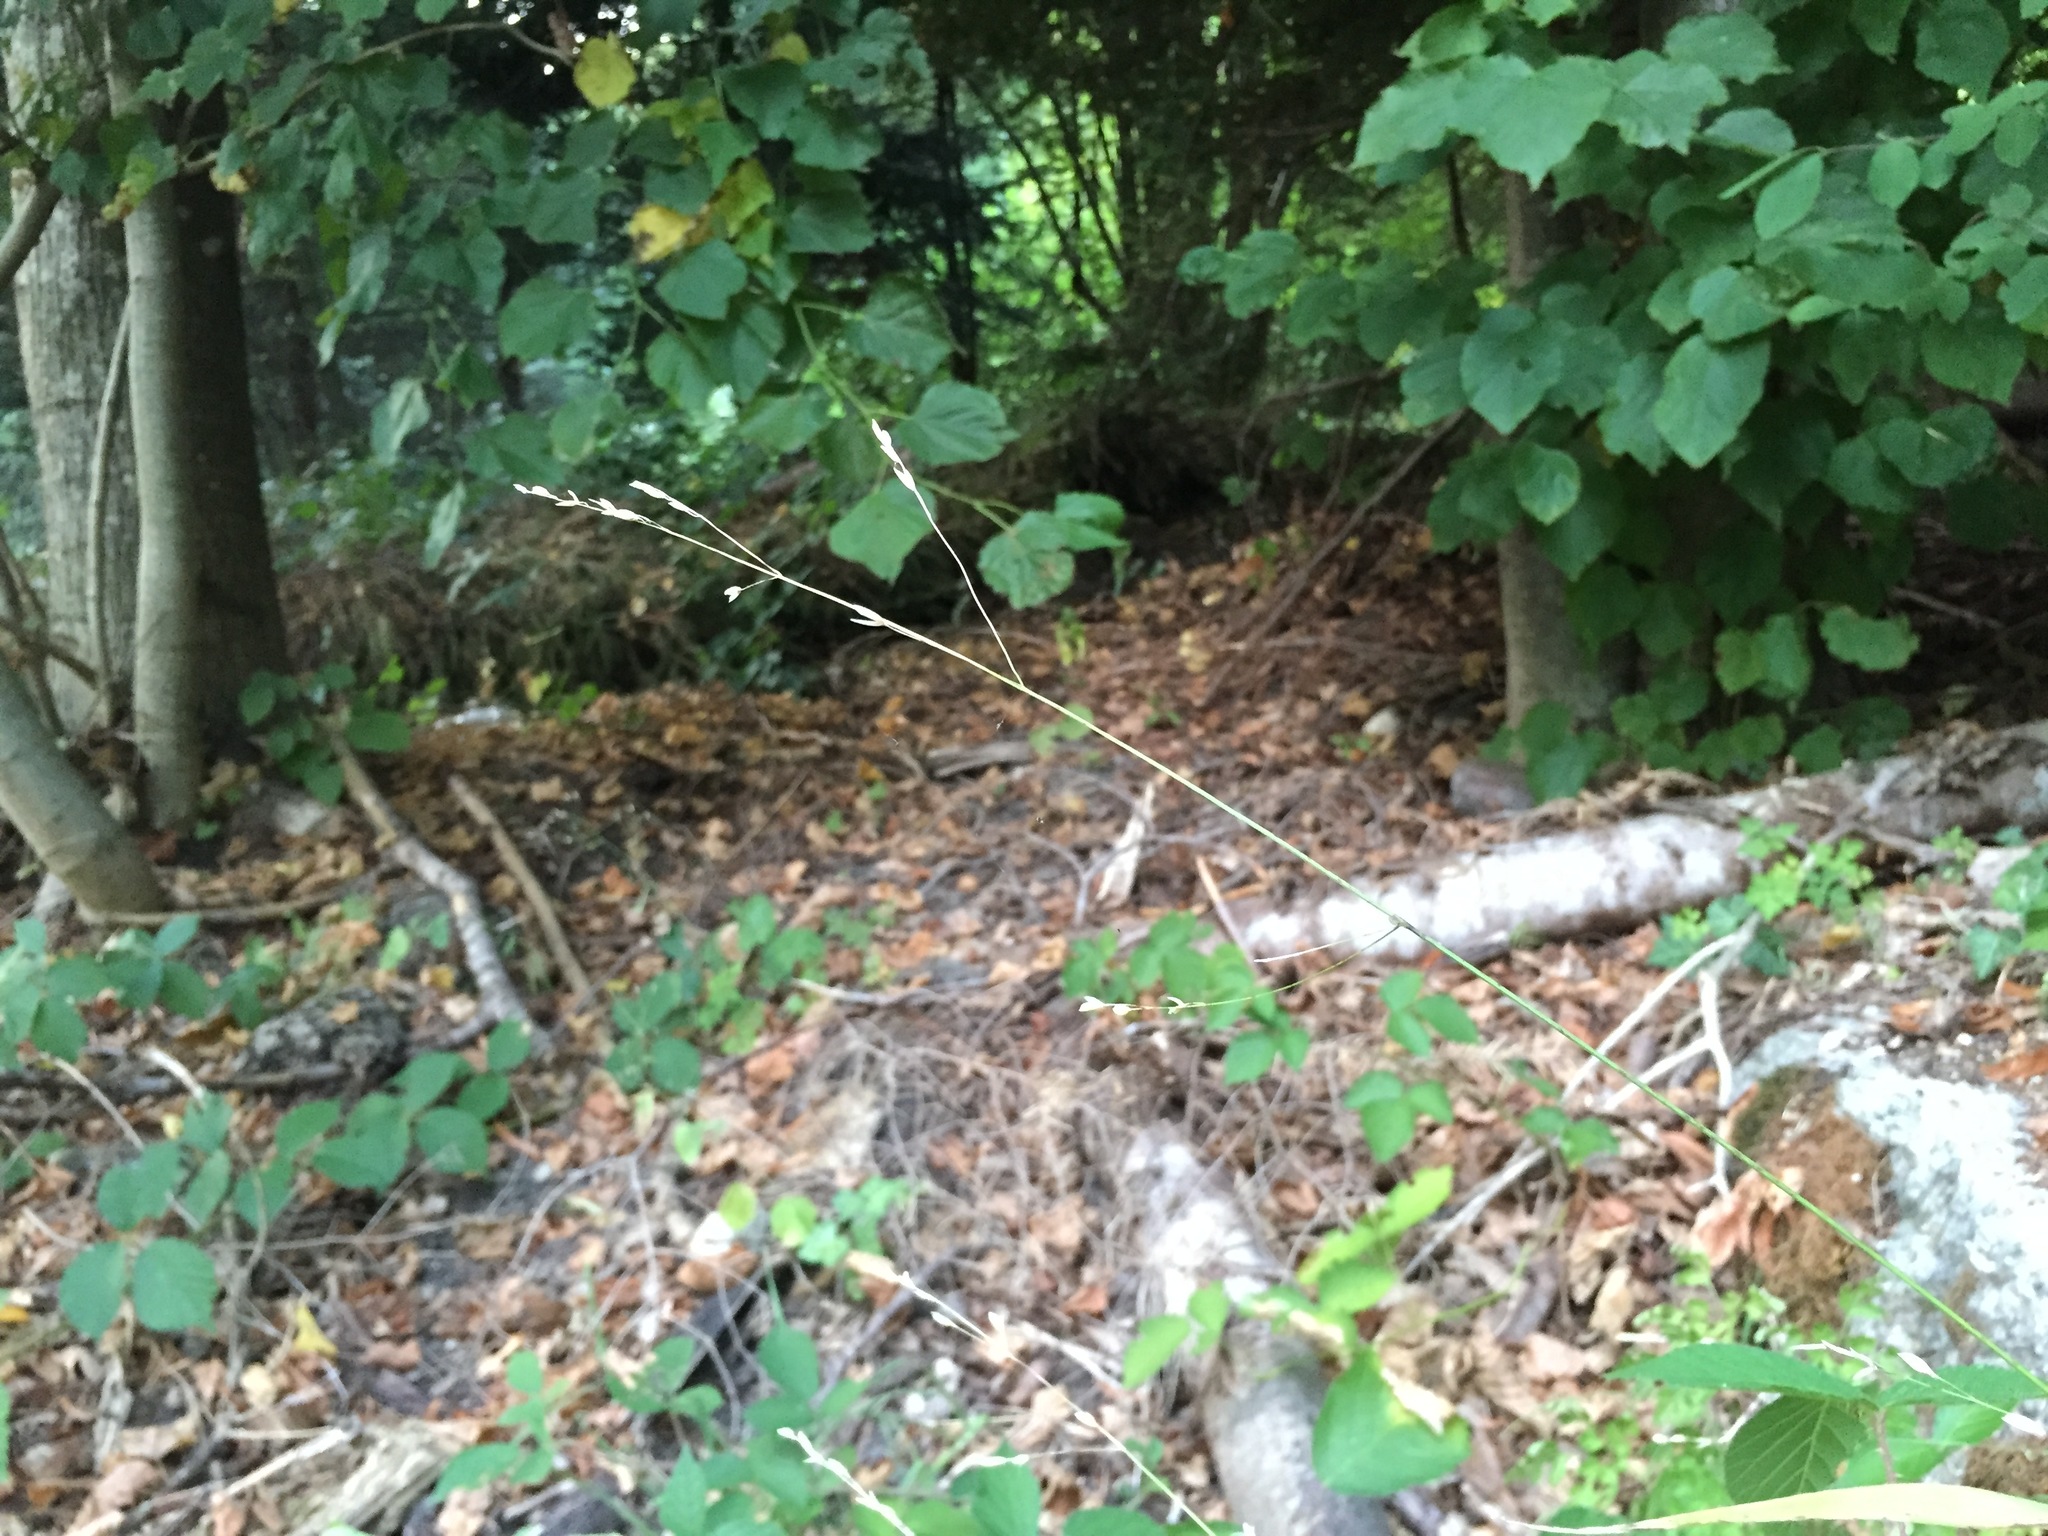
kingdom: Plantae
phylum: Tracheophyta
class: Liliopsida
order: Poales
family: Poaceae
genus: Melica
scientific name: Melica uniflora
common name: Wood melick
